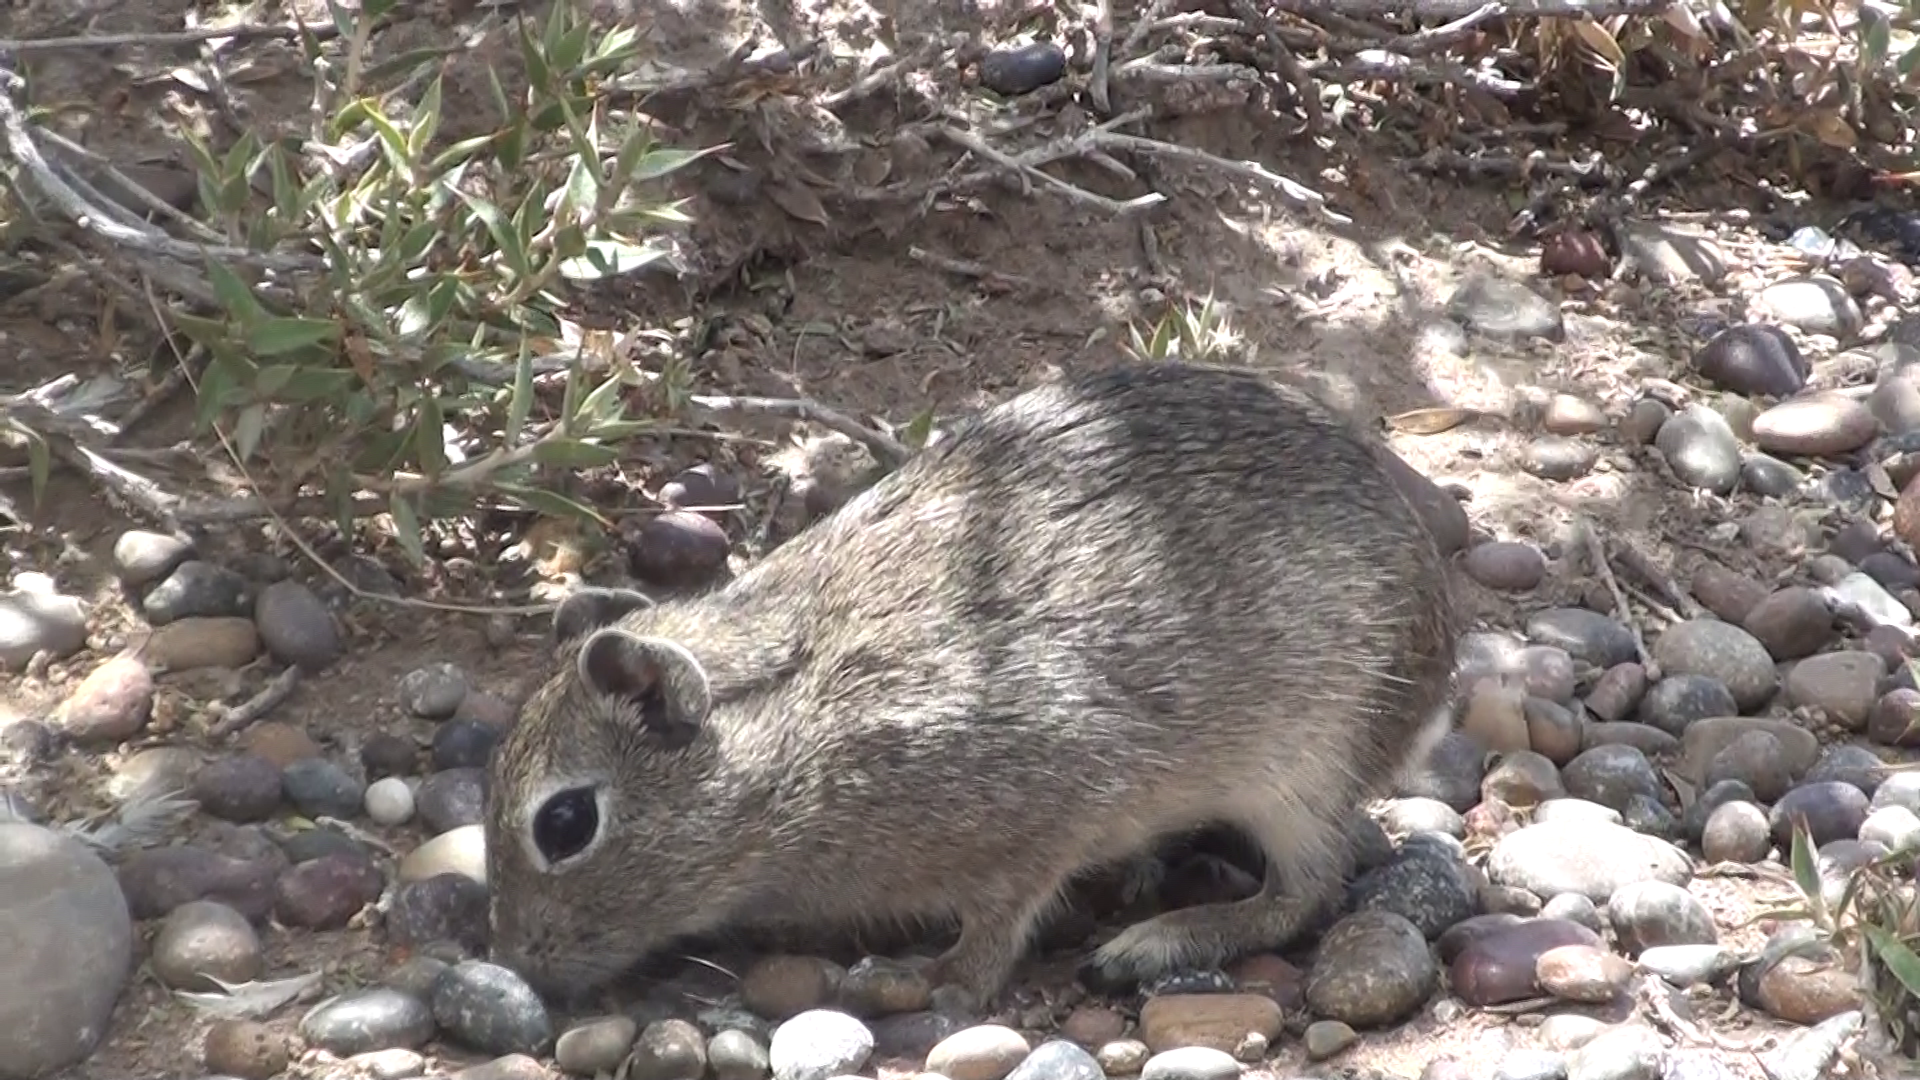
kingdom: Animalia
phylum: Chordata
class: Mammalia
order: Rodentia
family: Caviidae
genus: Microcavia
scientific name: Microcavia australis
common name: Southern mountain cavy
